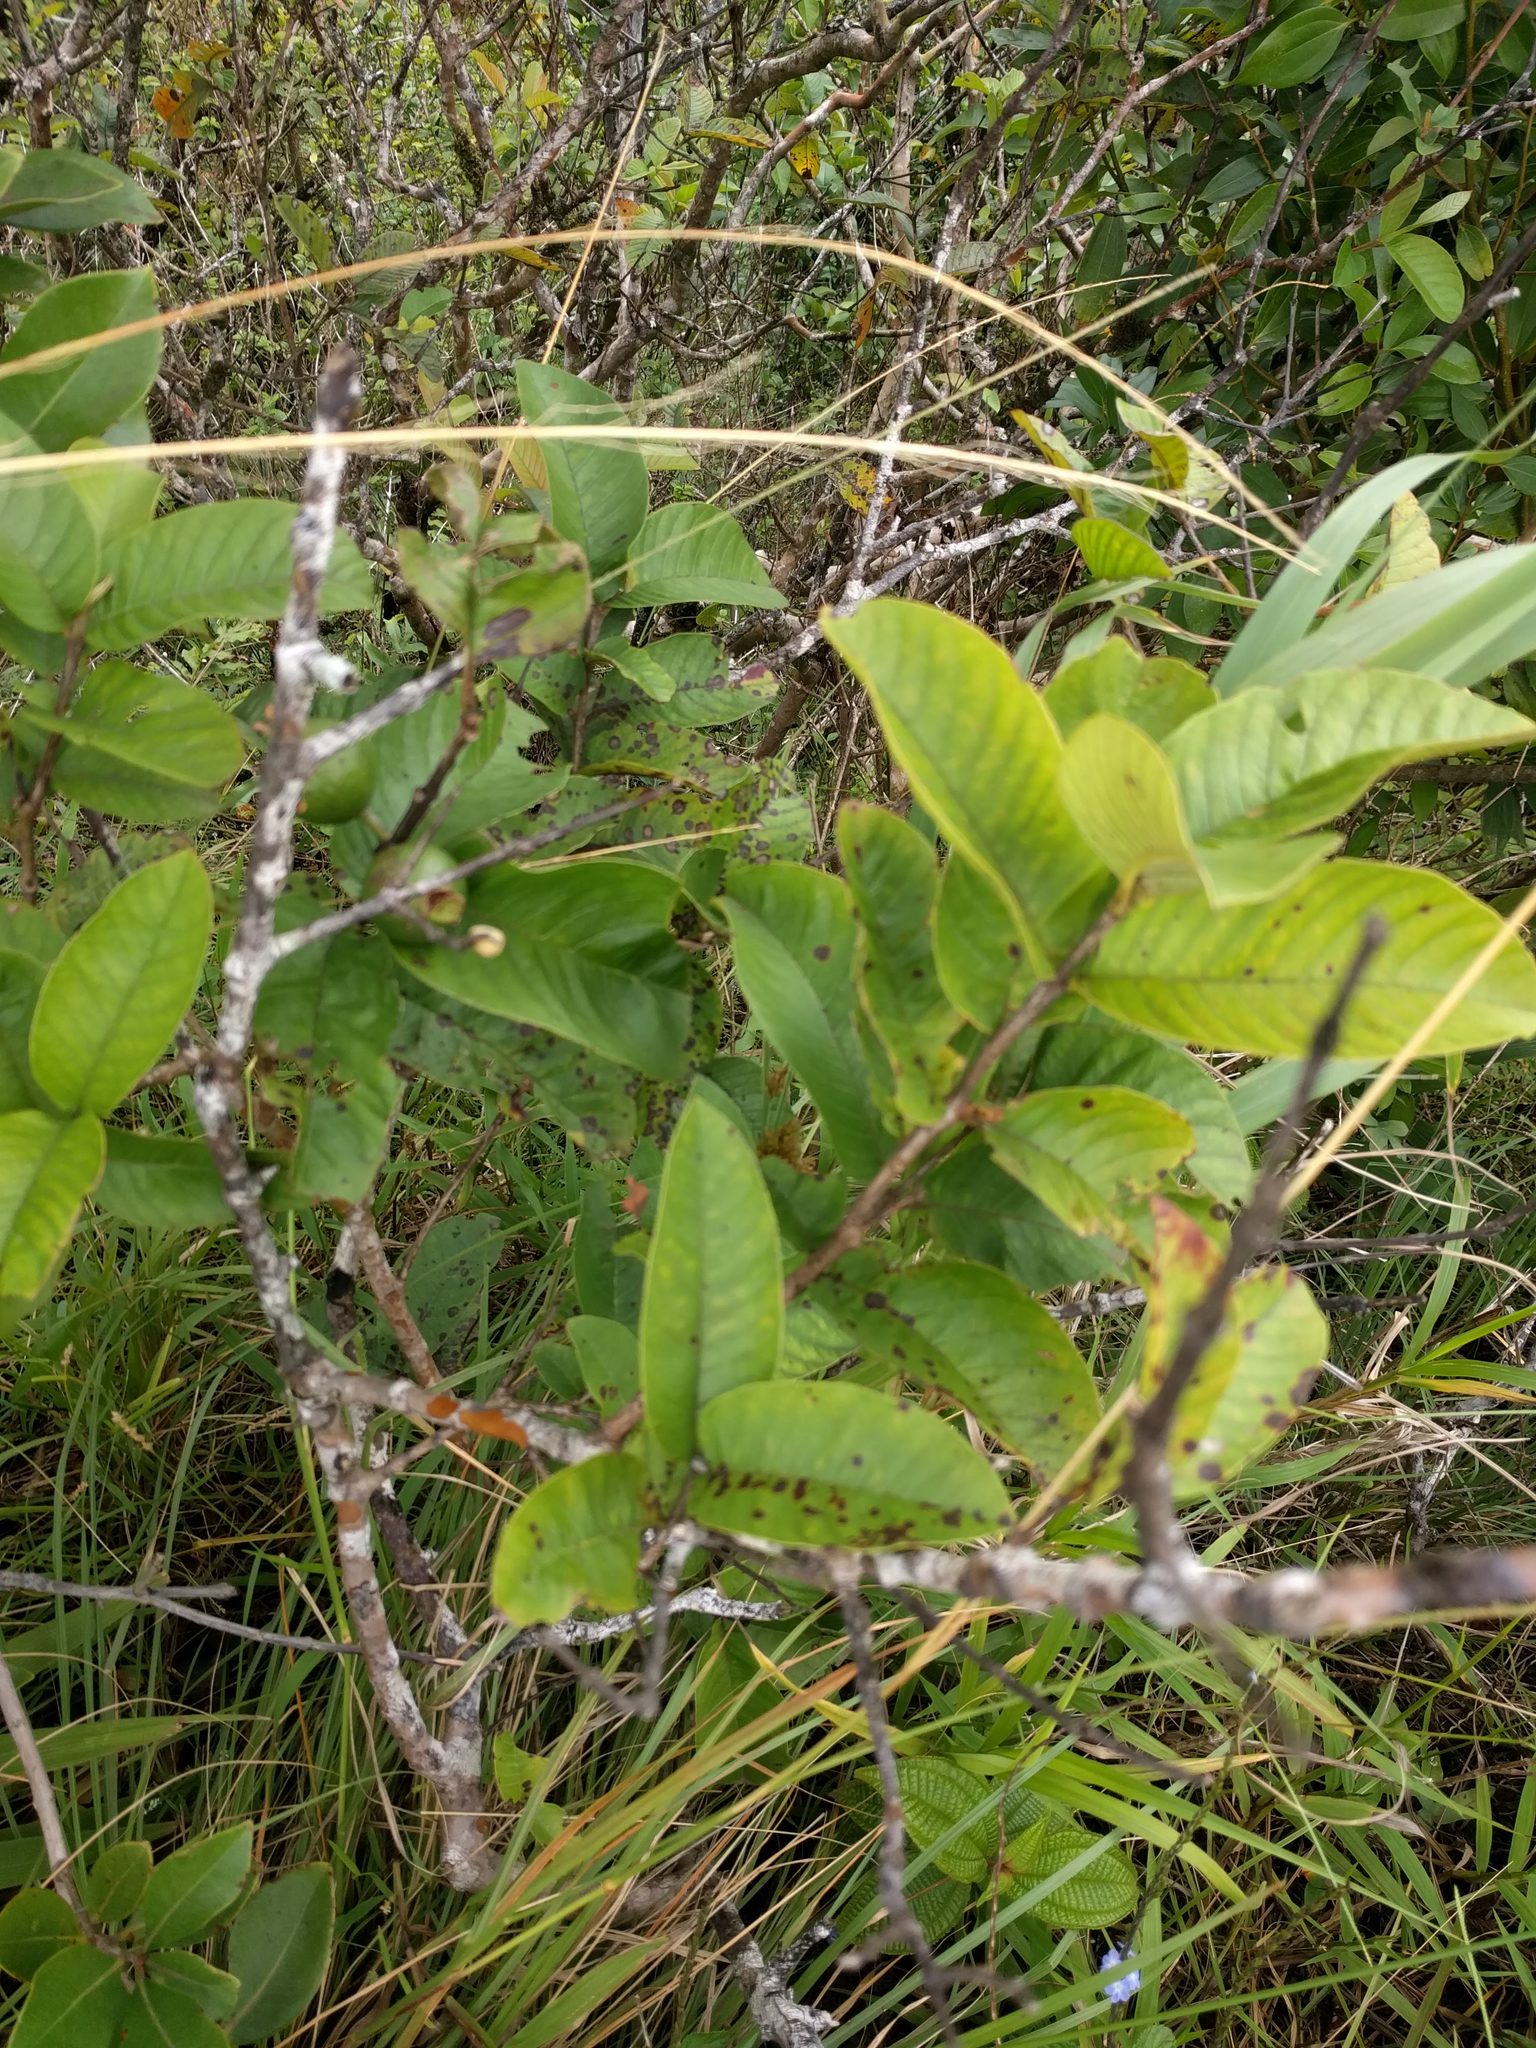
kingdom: Plantae
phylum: Tracheophyta
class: Magnoliopsida
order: Myrtales
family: Myrtaceae
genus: Psidium
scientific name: Psidium guajava
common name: Guava
